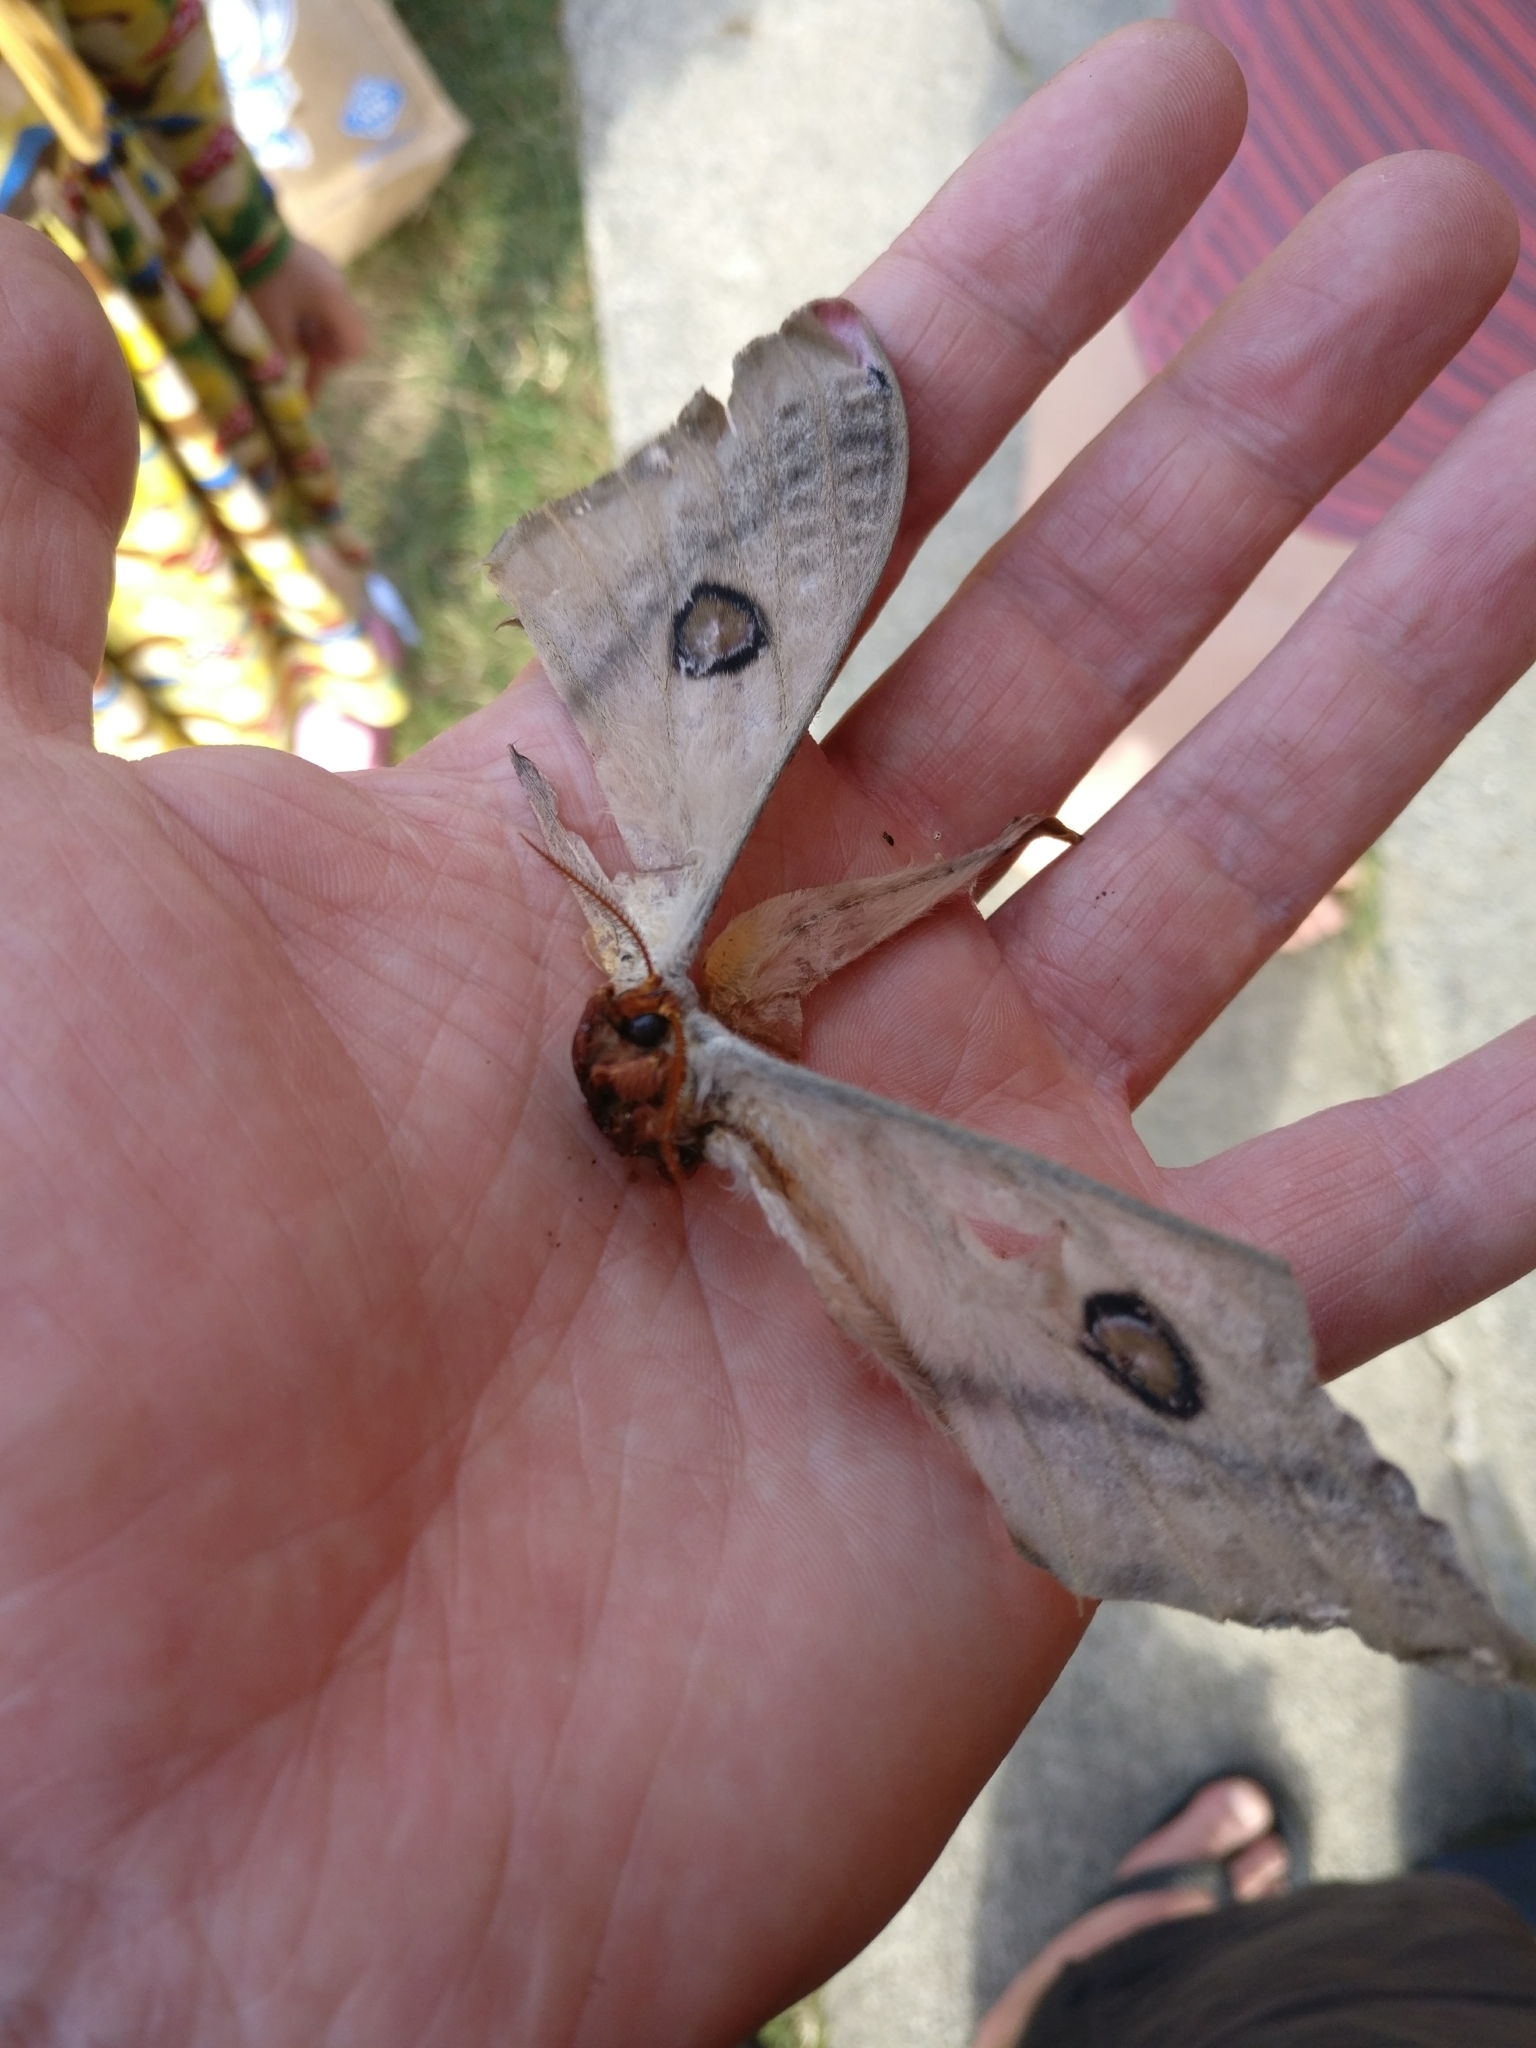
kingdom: Animalia
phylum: Arthropoda
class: Insecta
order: Lepidoptera
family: Saturniidae
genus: Opodiphthera
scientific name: Opodiphthera
